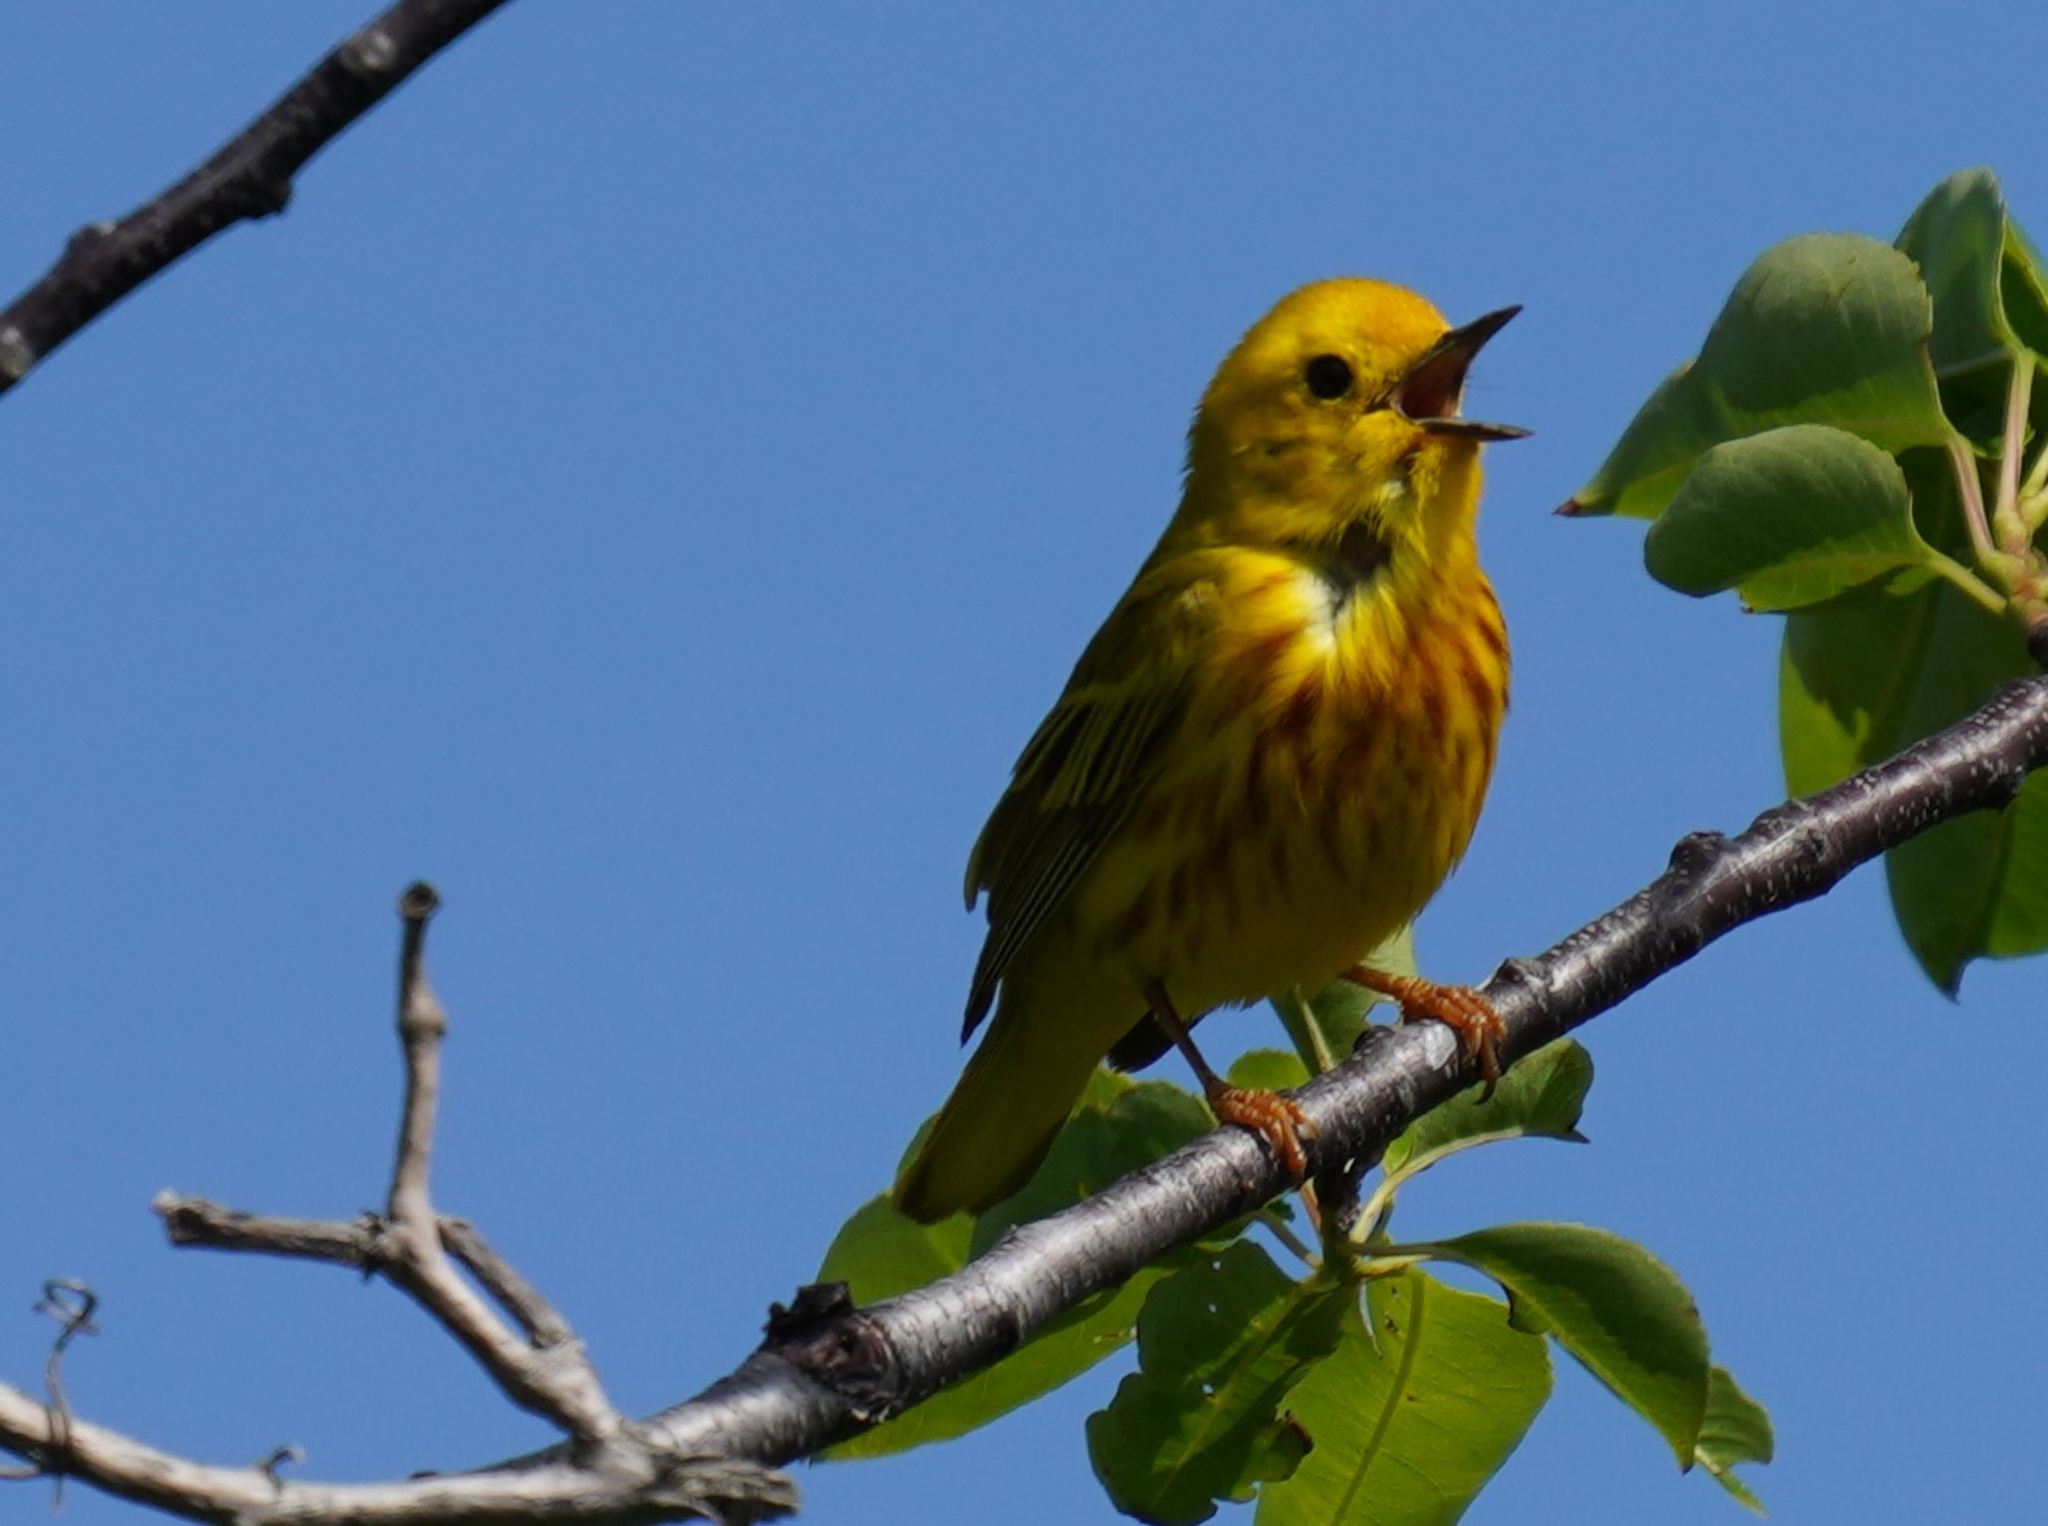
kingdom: Animalia
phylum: Chordata
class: Aves
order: Passeriformes
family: Parulidae
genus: Setophaga
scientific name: Setophaga petechia
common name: Yellow warbler
